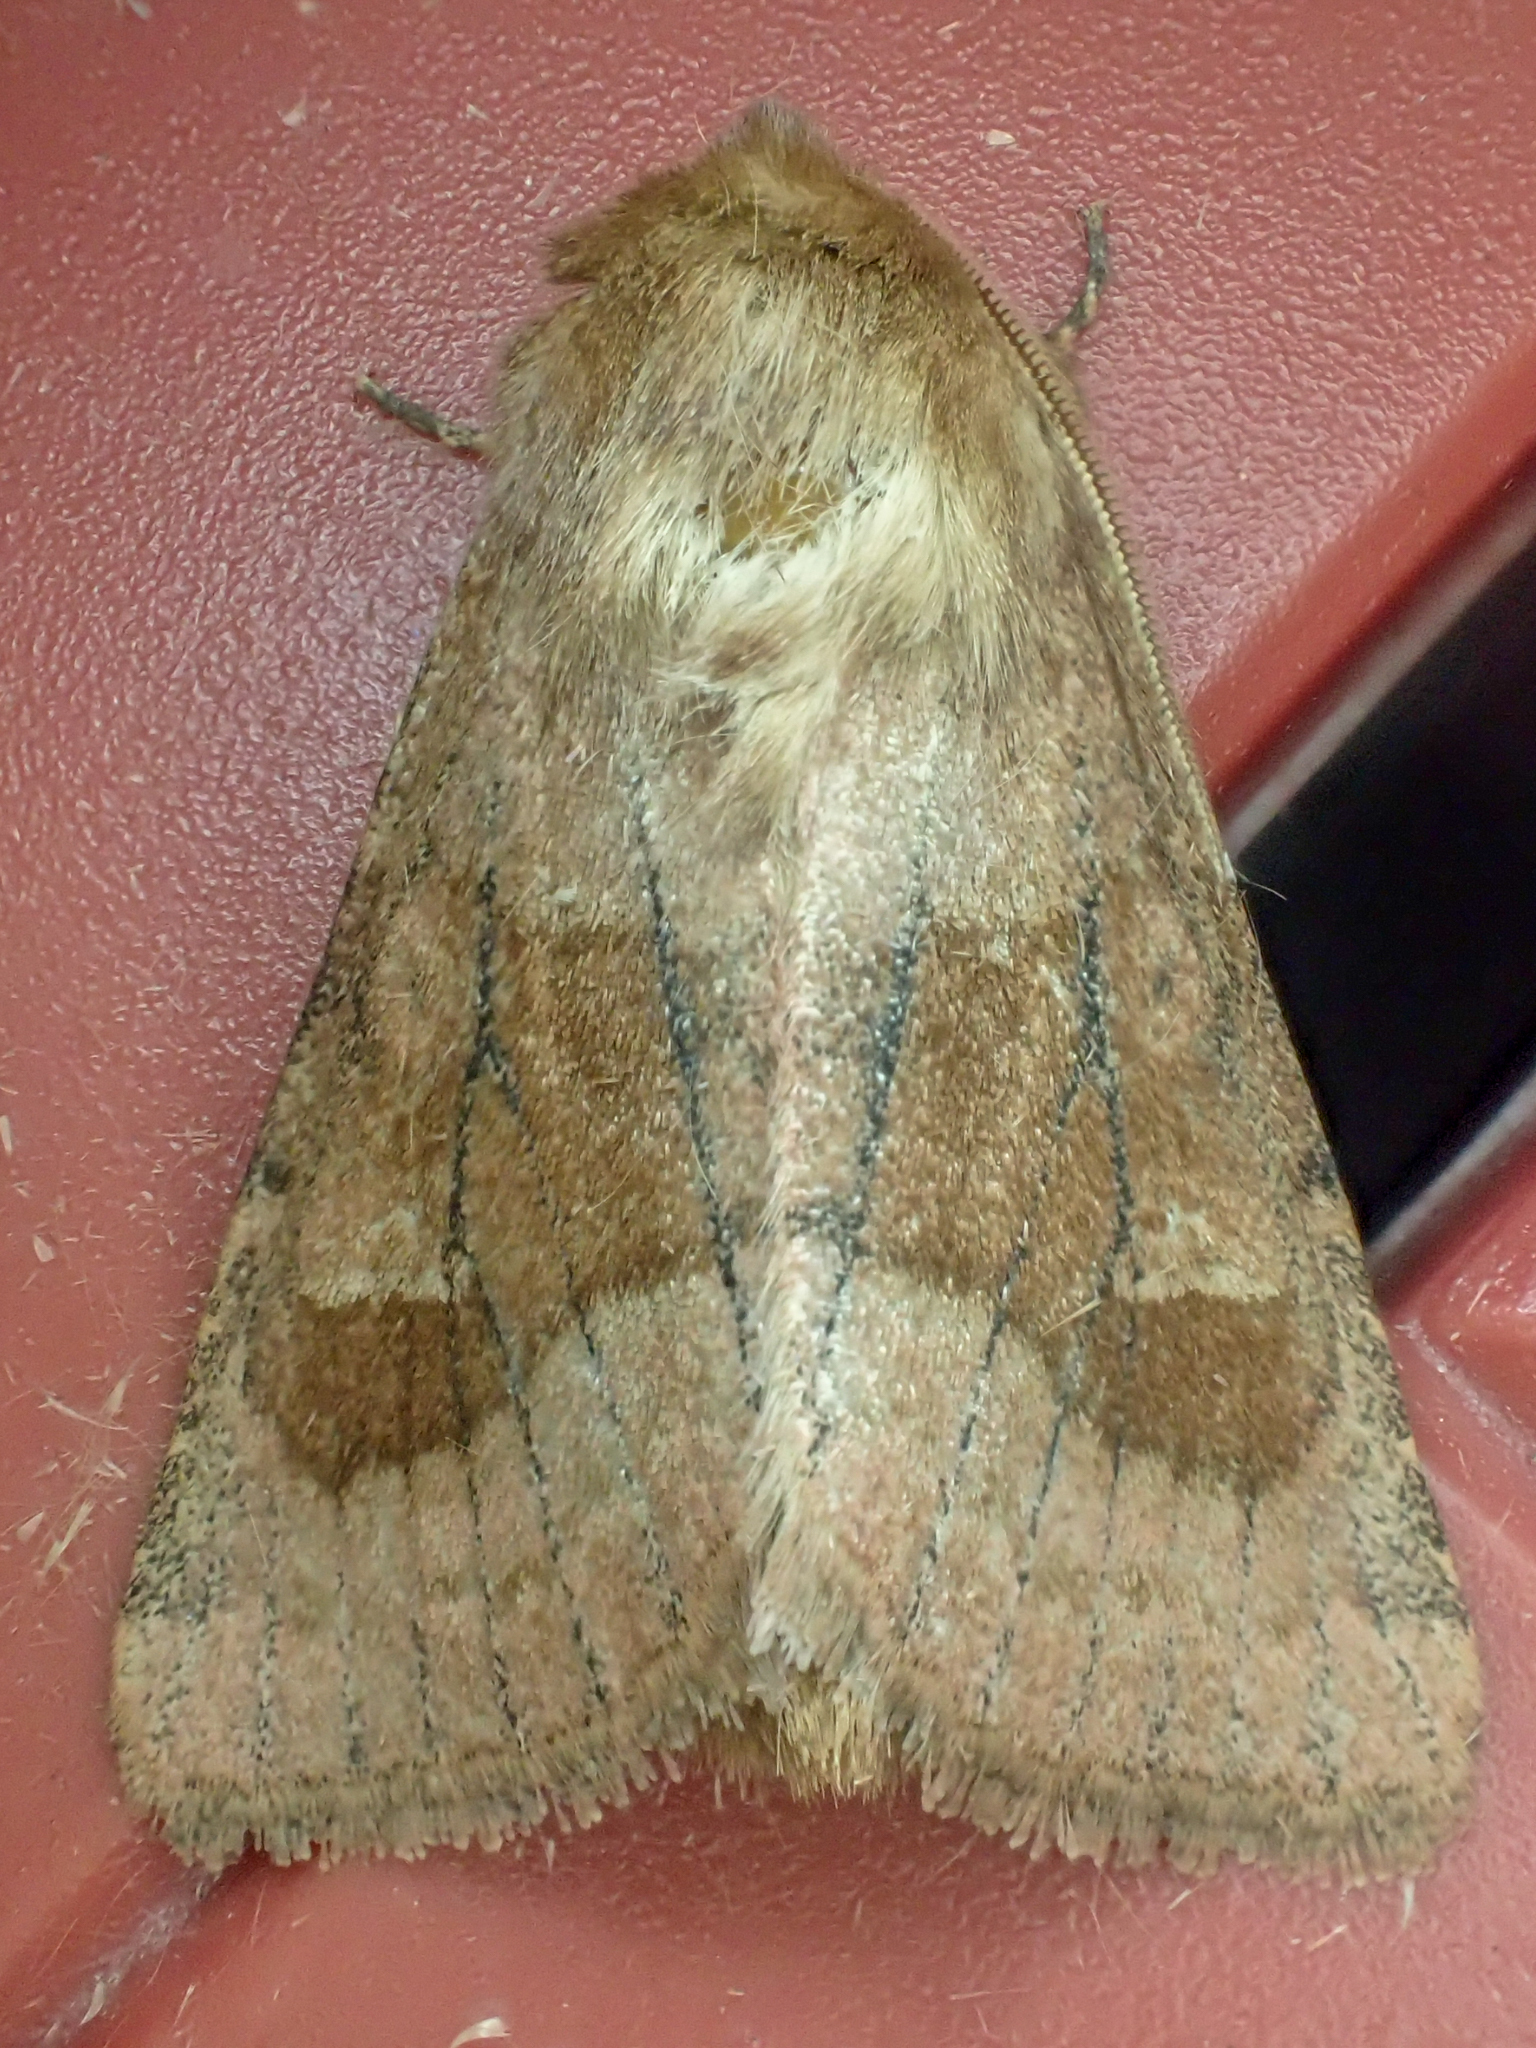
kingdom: Animalia
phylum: Arthropoda
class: Insecta
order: Lepidoptera
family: Noctuidae
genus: Nephelodes
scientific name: Nephelodes minians
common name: Bronzed cutworm
